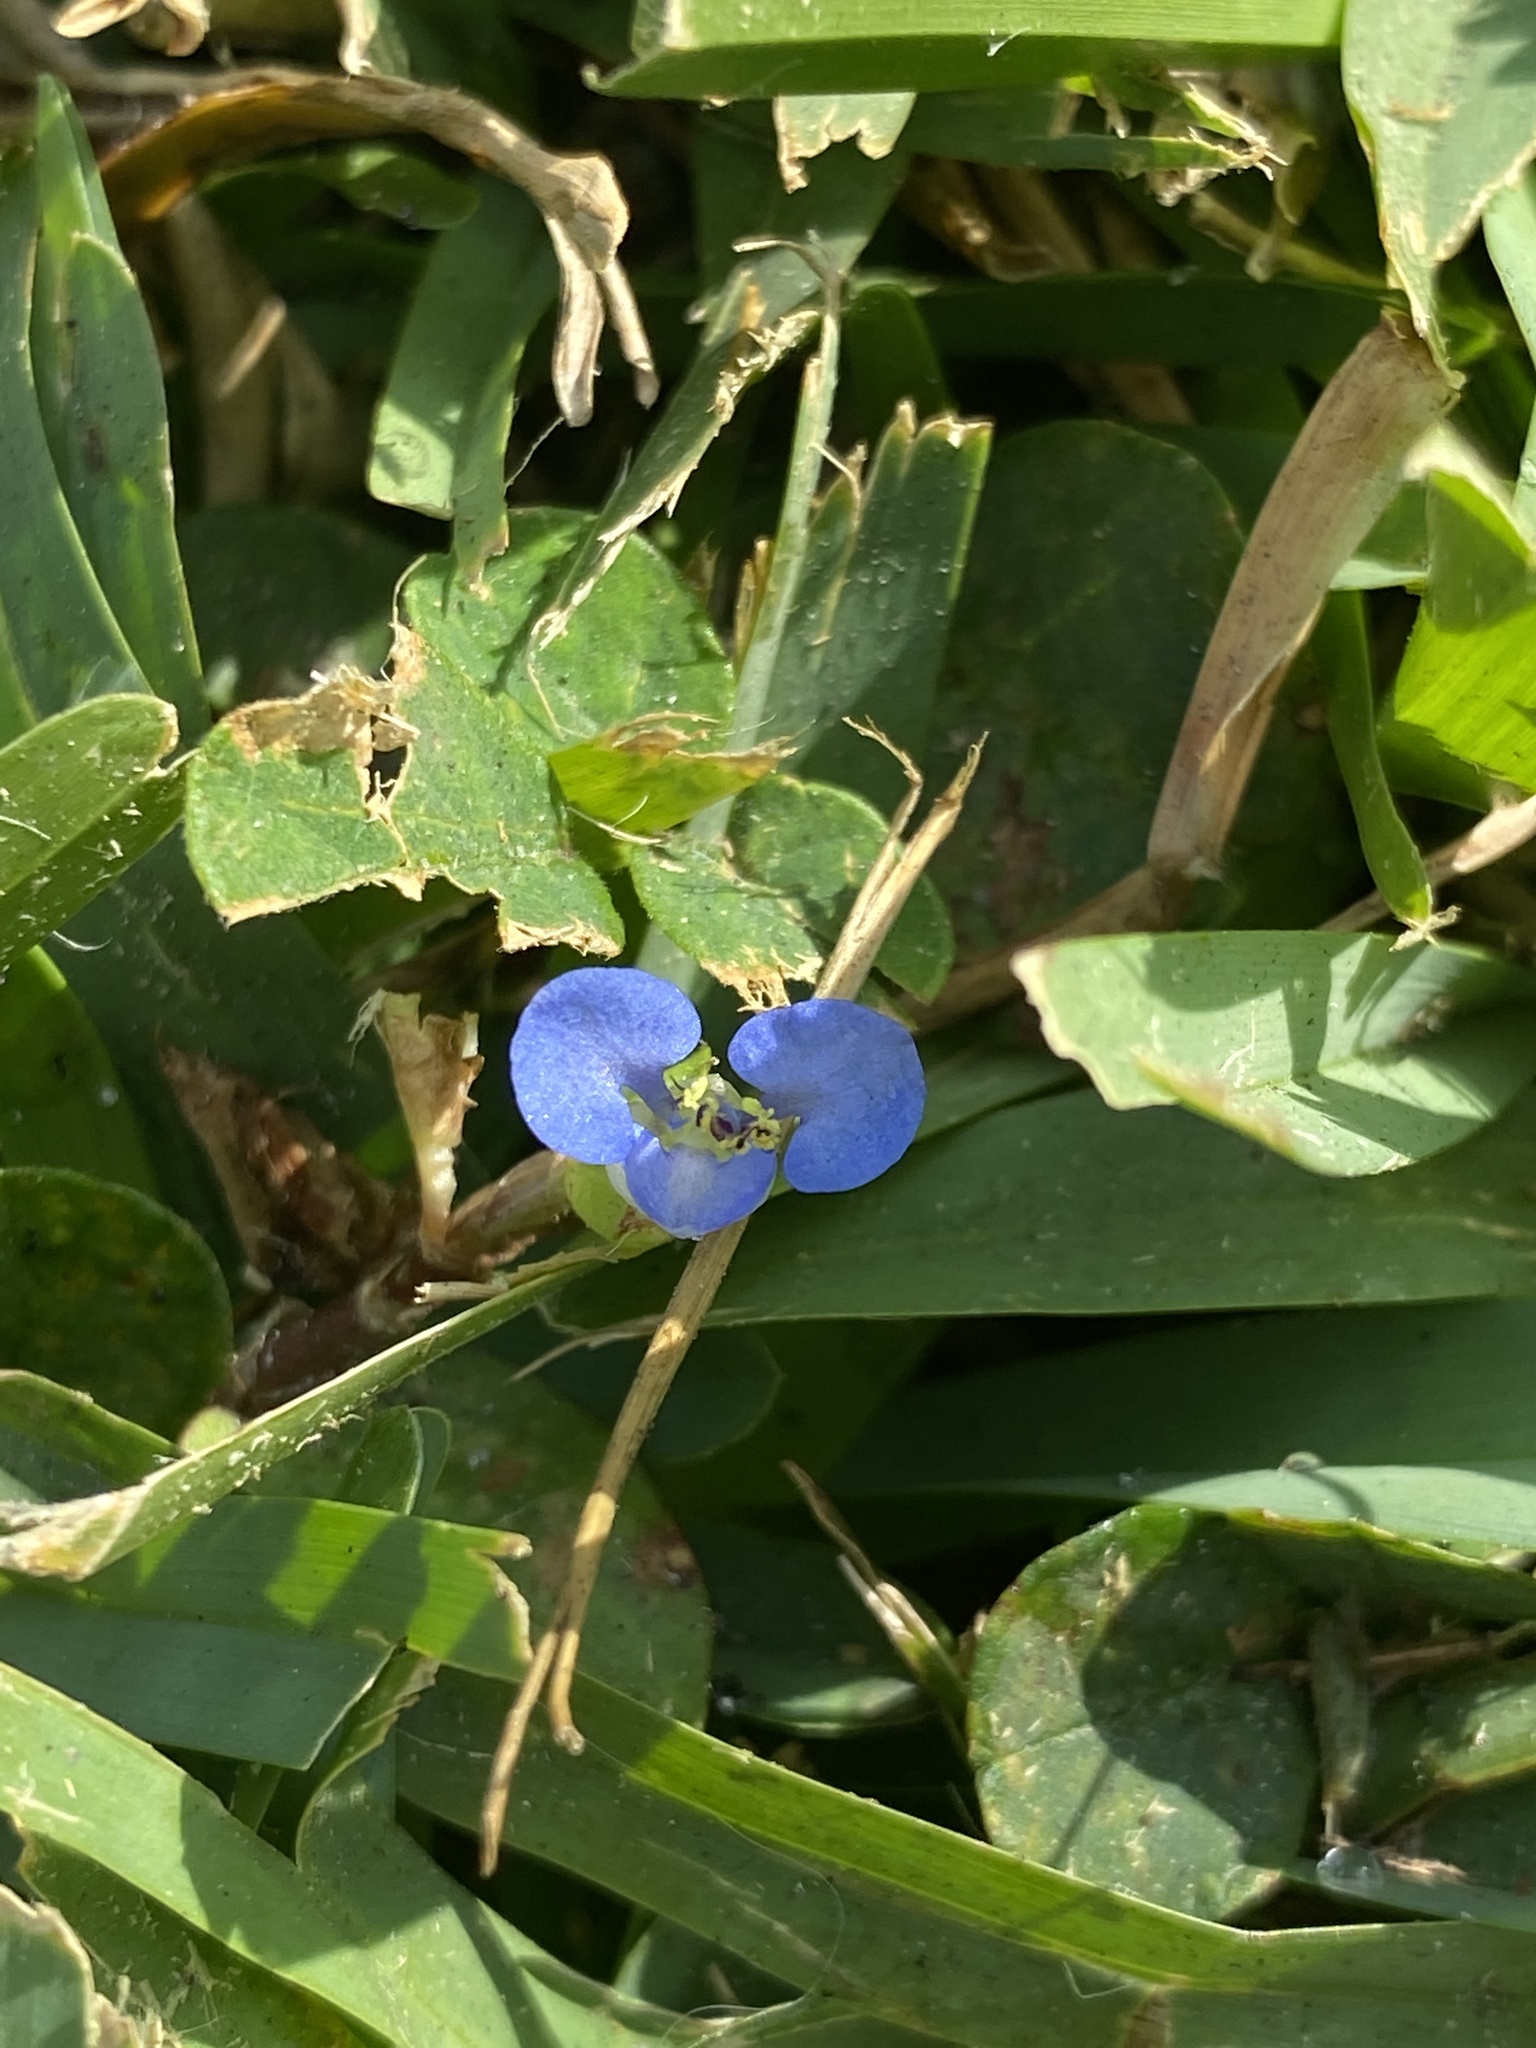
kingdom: Plantae
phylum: Tracheophyta
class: Liliopsida
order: Commelinales
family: Commelinaceae
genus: Commelina
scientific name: Commelina diffusa
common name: Climbing dayflower
